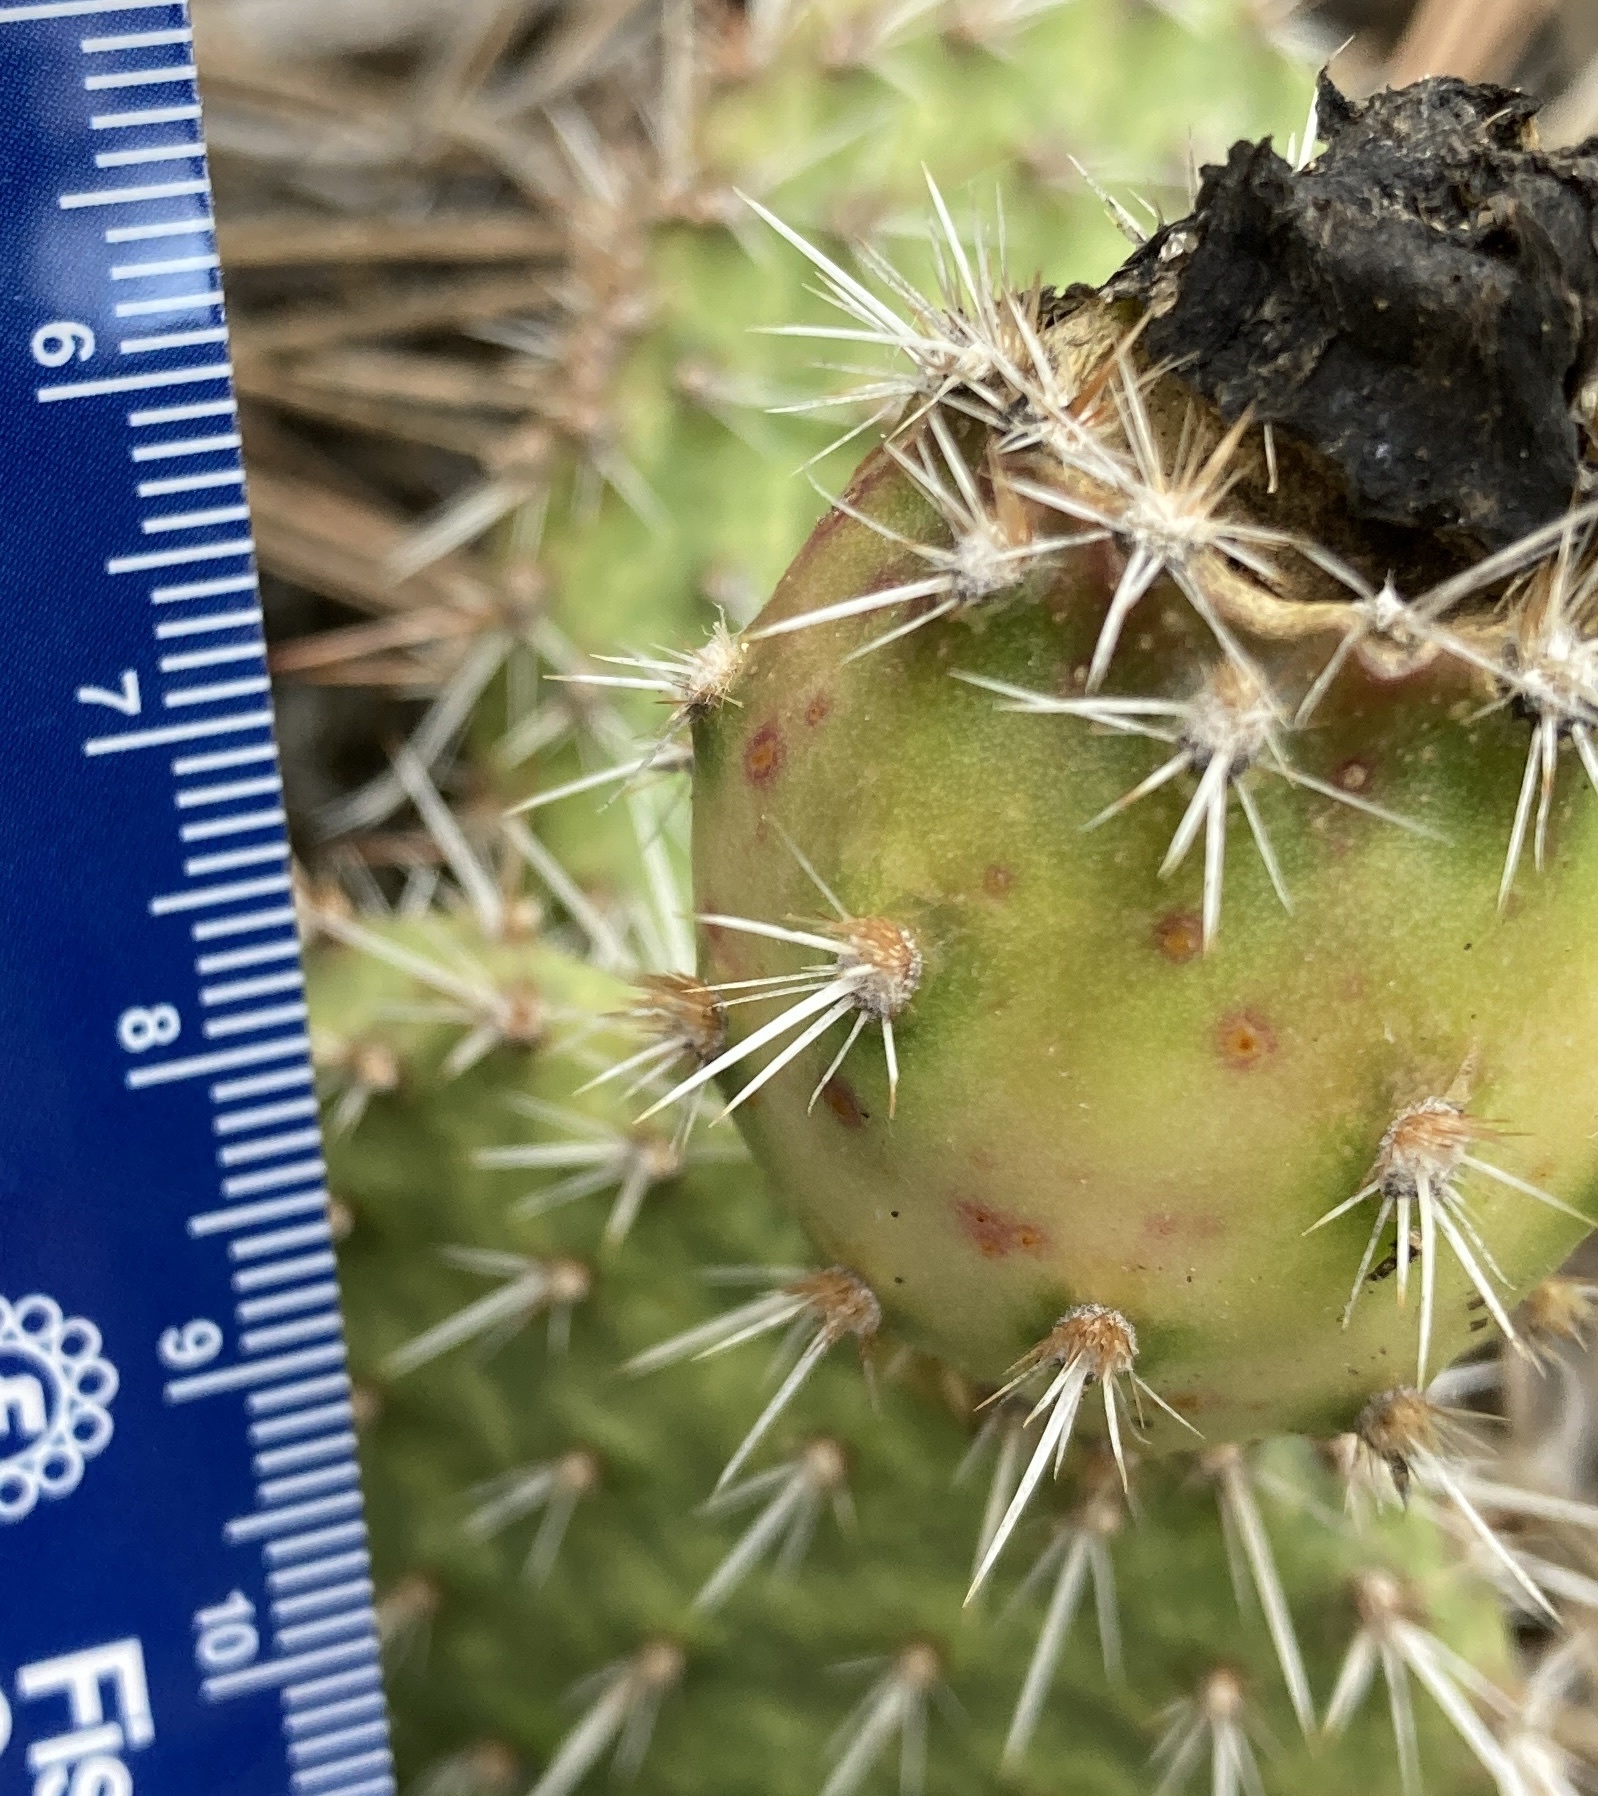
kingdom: Plantae
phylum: Tracheophyta
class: Magnoliopsida
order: Caryophyllales
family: Cactaceae
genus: Opuntia
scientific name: Opuntia polyacantha
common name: Plains prickly-pear
